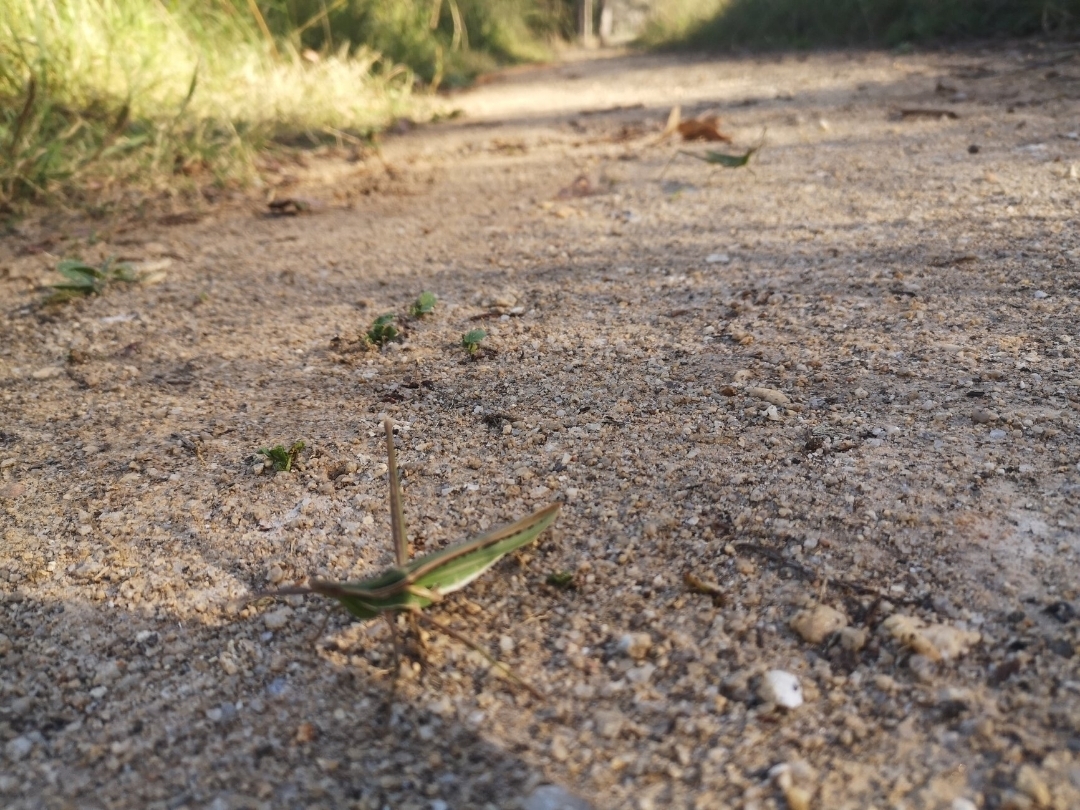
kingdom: Animalia
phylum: Arthropoda
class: Insecta
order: Orthoptera
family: Acrididae
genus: Acrida
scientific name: Acrida conica
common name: Giant green slantface
